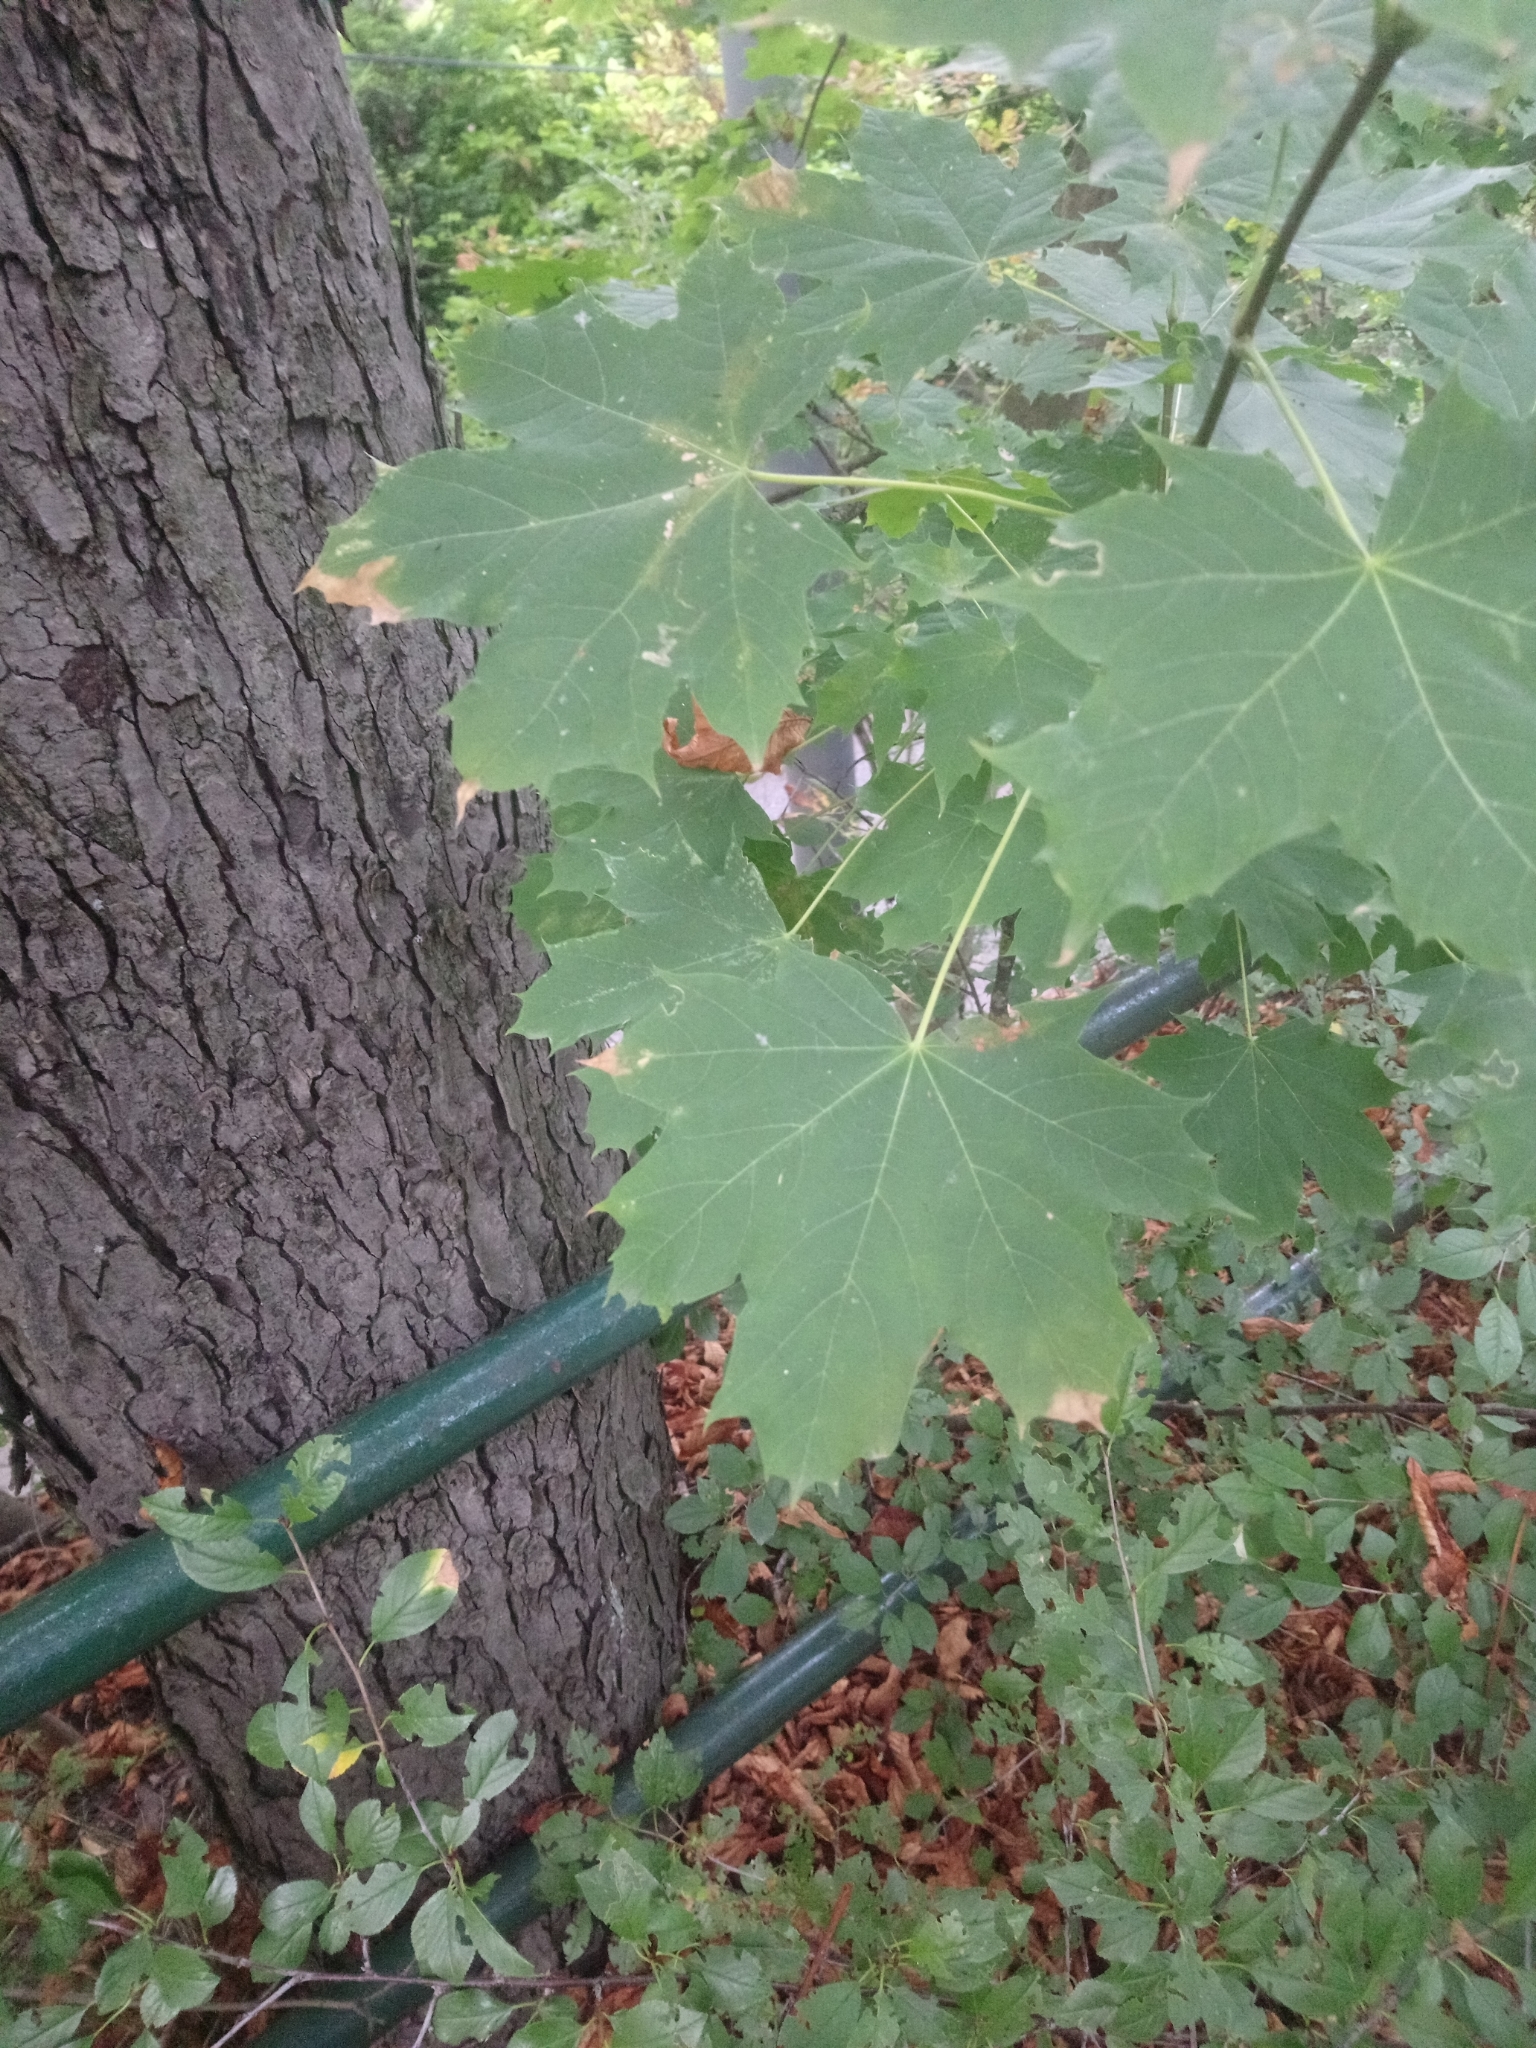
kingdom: Plantae
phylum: Tracheophyta
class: Magnoliopsida
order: Sapindales
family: Sapindaceae
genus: Acer
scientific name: Acer platanoides
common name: Norway maple
